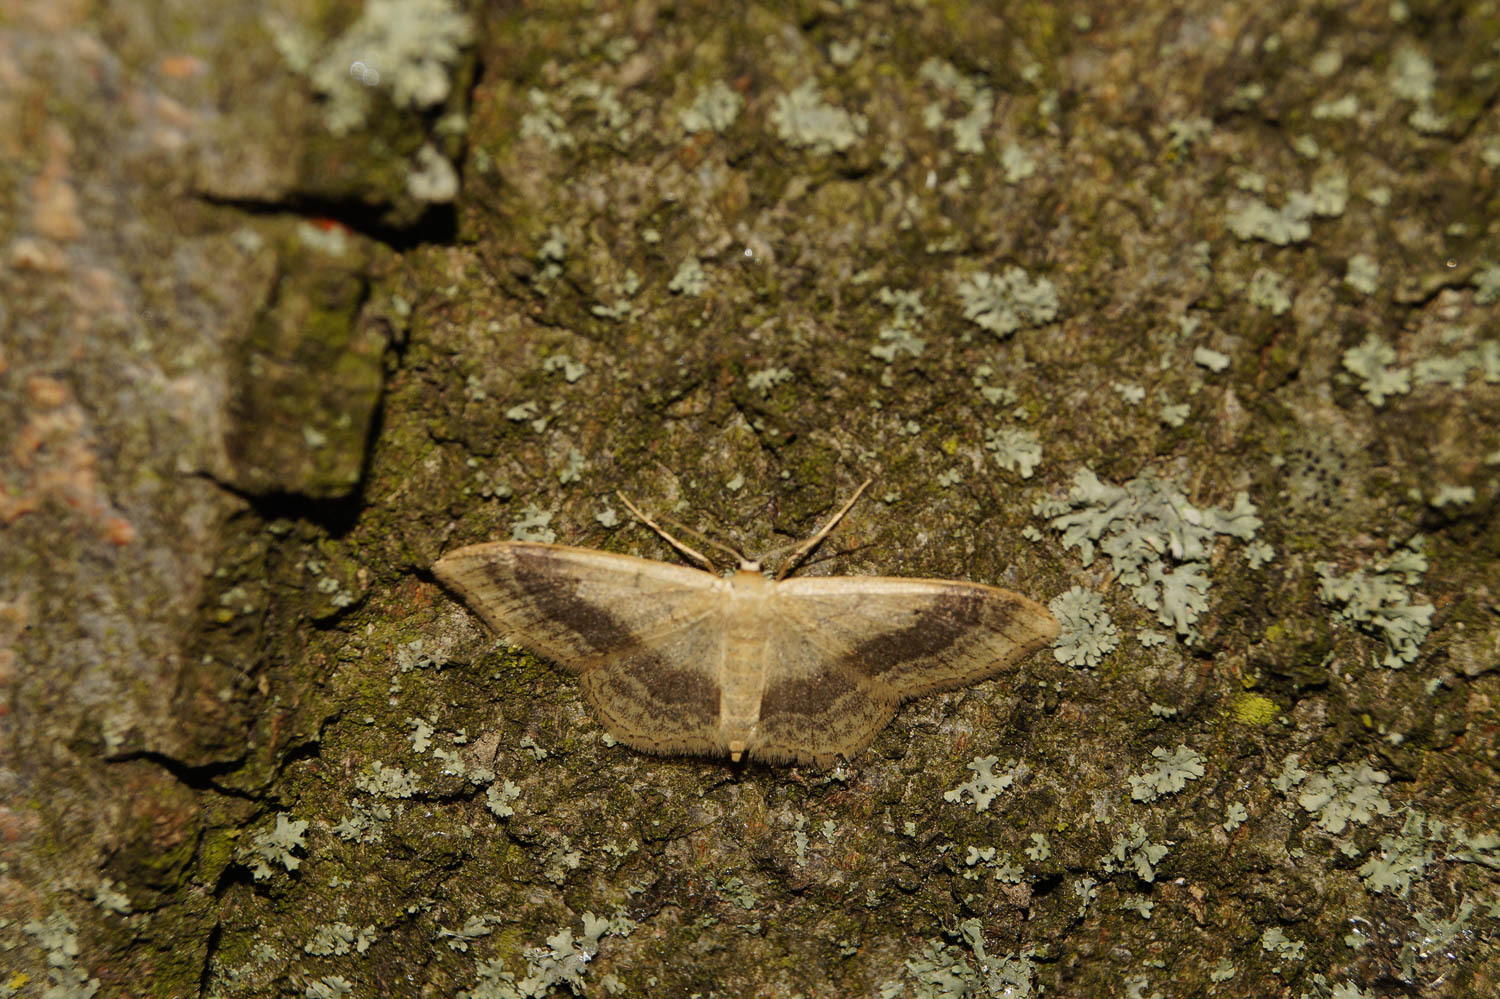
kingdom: Animalia
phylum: Arthropoda
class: Insecta
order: Lepidoptera
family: Geometridae
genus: Idaea
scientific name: Idaea aversata
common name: Riband wave
